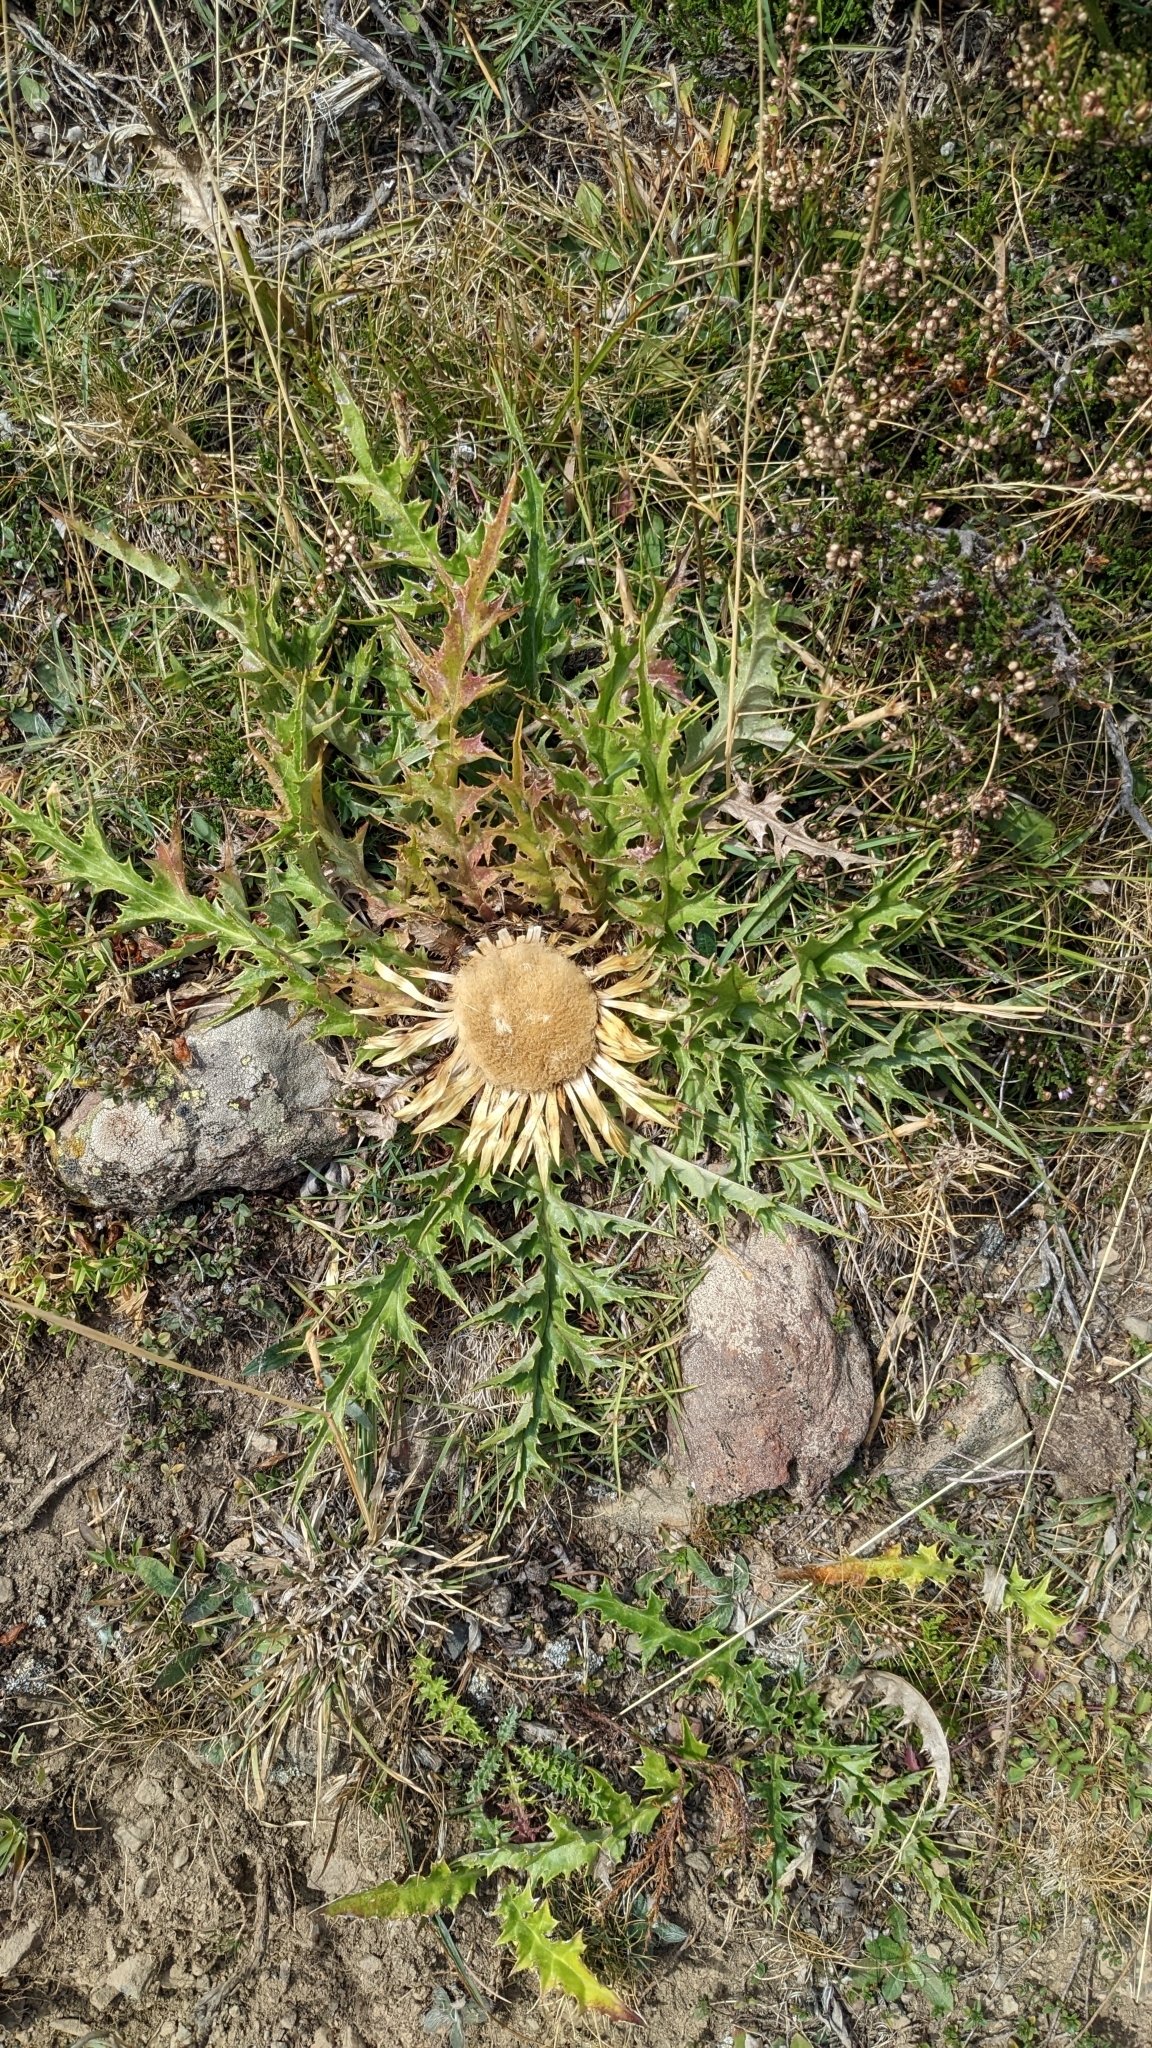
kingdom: Plantae
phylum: Tracheophyta
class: Magnoliopsida
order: Asterales
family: Asteraceae
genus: Carlina
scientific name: Carlina acanthifolia
